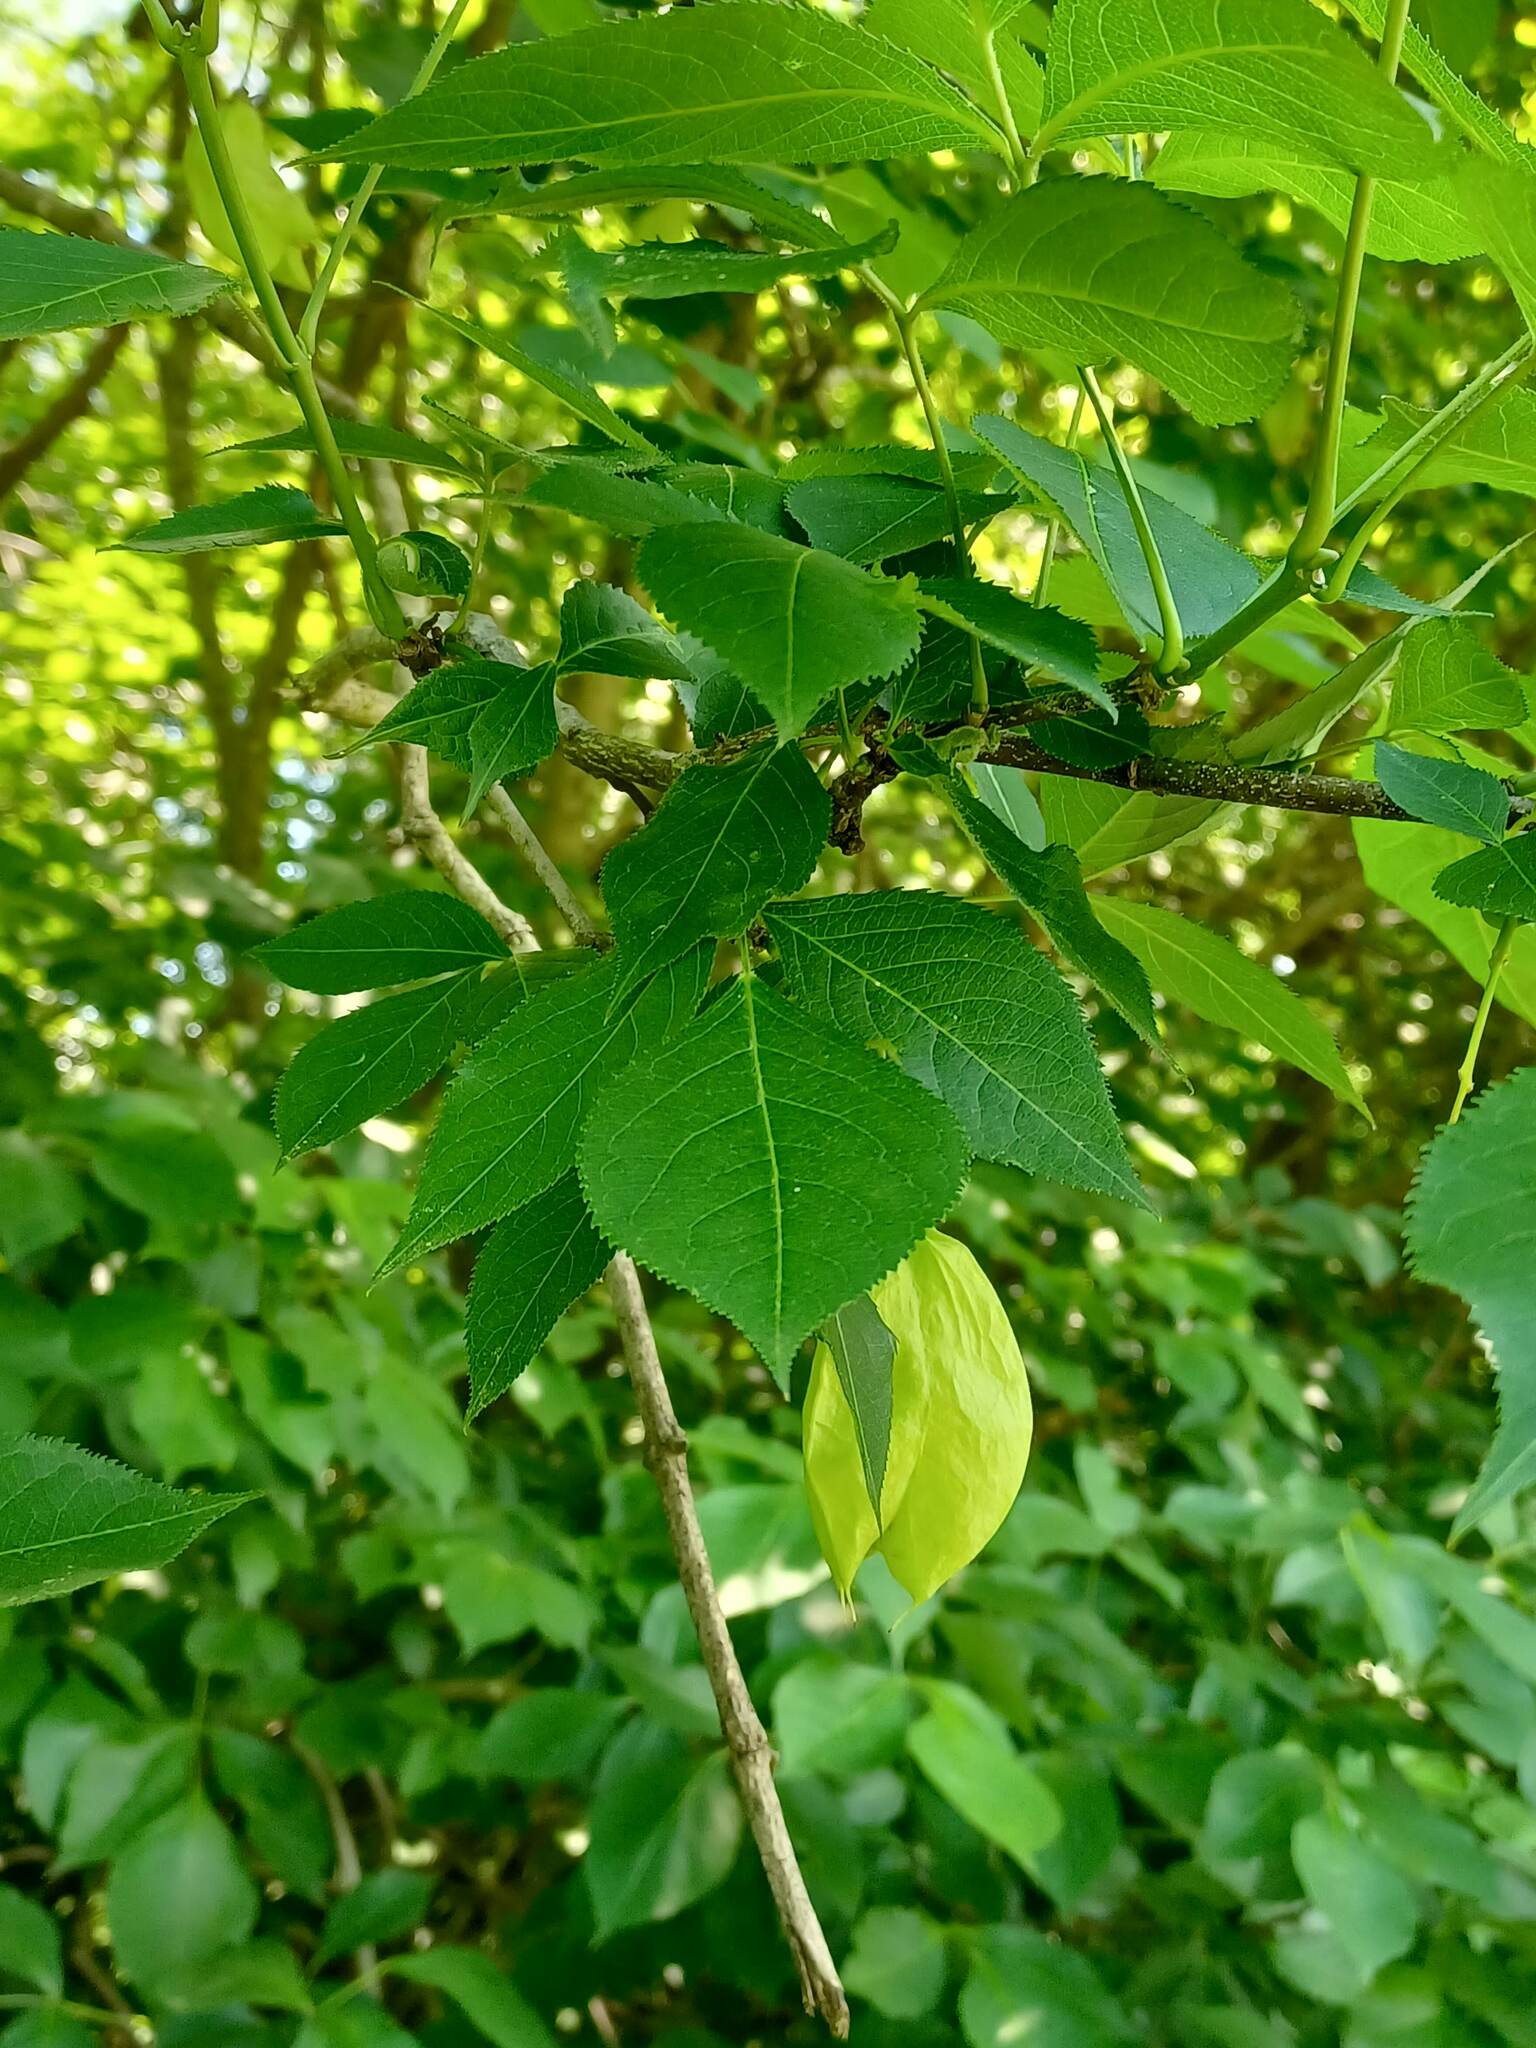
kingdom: Plantae
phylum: Tracheophyta
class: Magnoliopsida
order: Crossosomatales
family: Staphyleaceae
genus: Staphylea
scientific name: Staphylea trifolia
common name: American bladdernut
